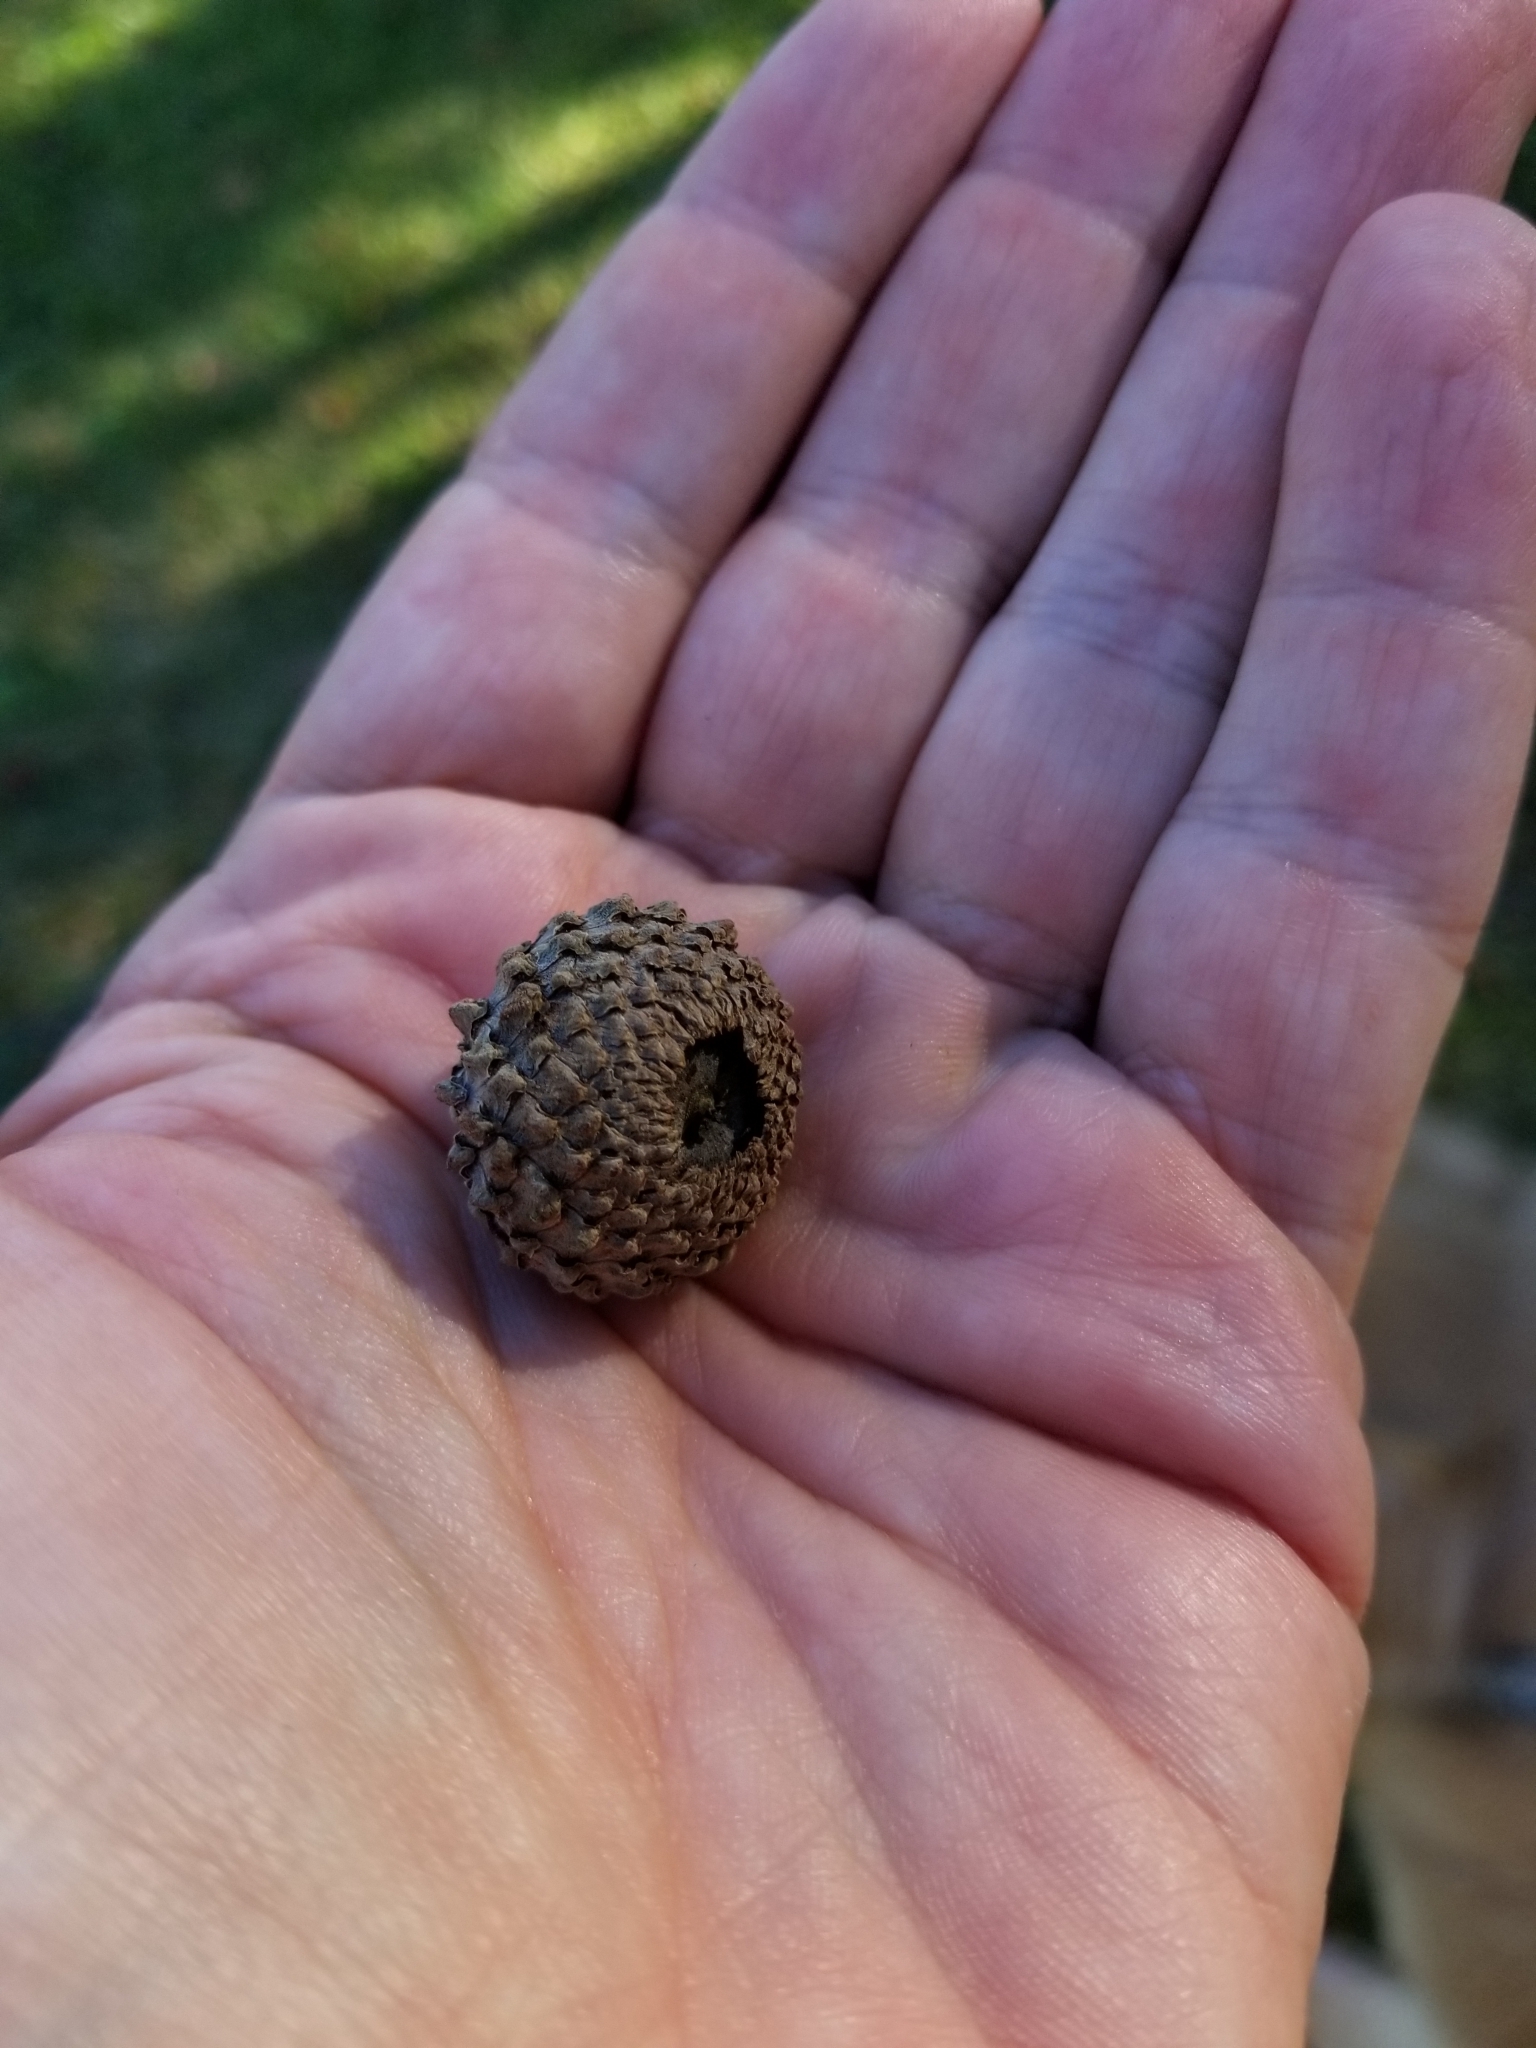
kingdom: Plantae
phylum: Tracheophyta
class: Magnoliopsida
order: Fagales
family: Fagaceae
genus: Quercus
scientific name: Quercus lyrata
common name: Overcup oak
